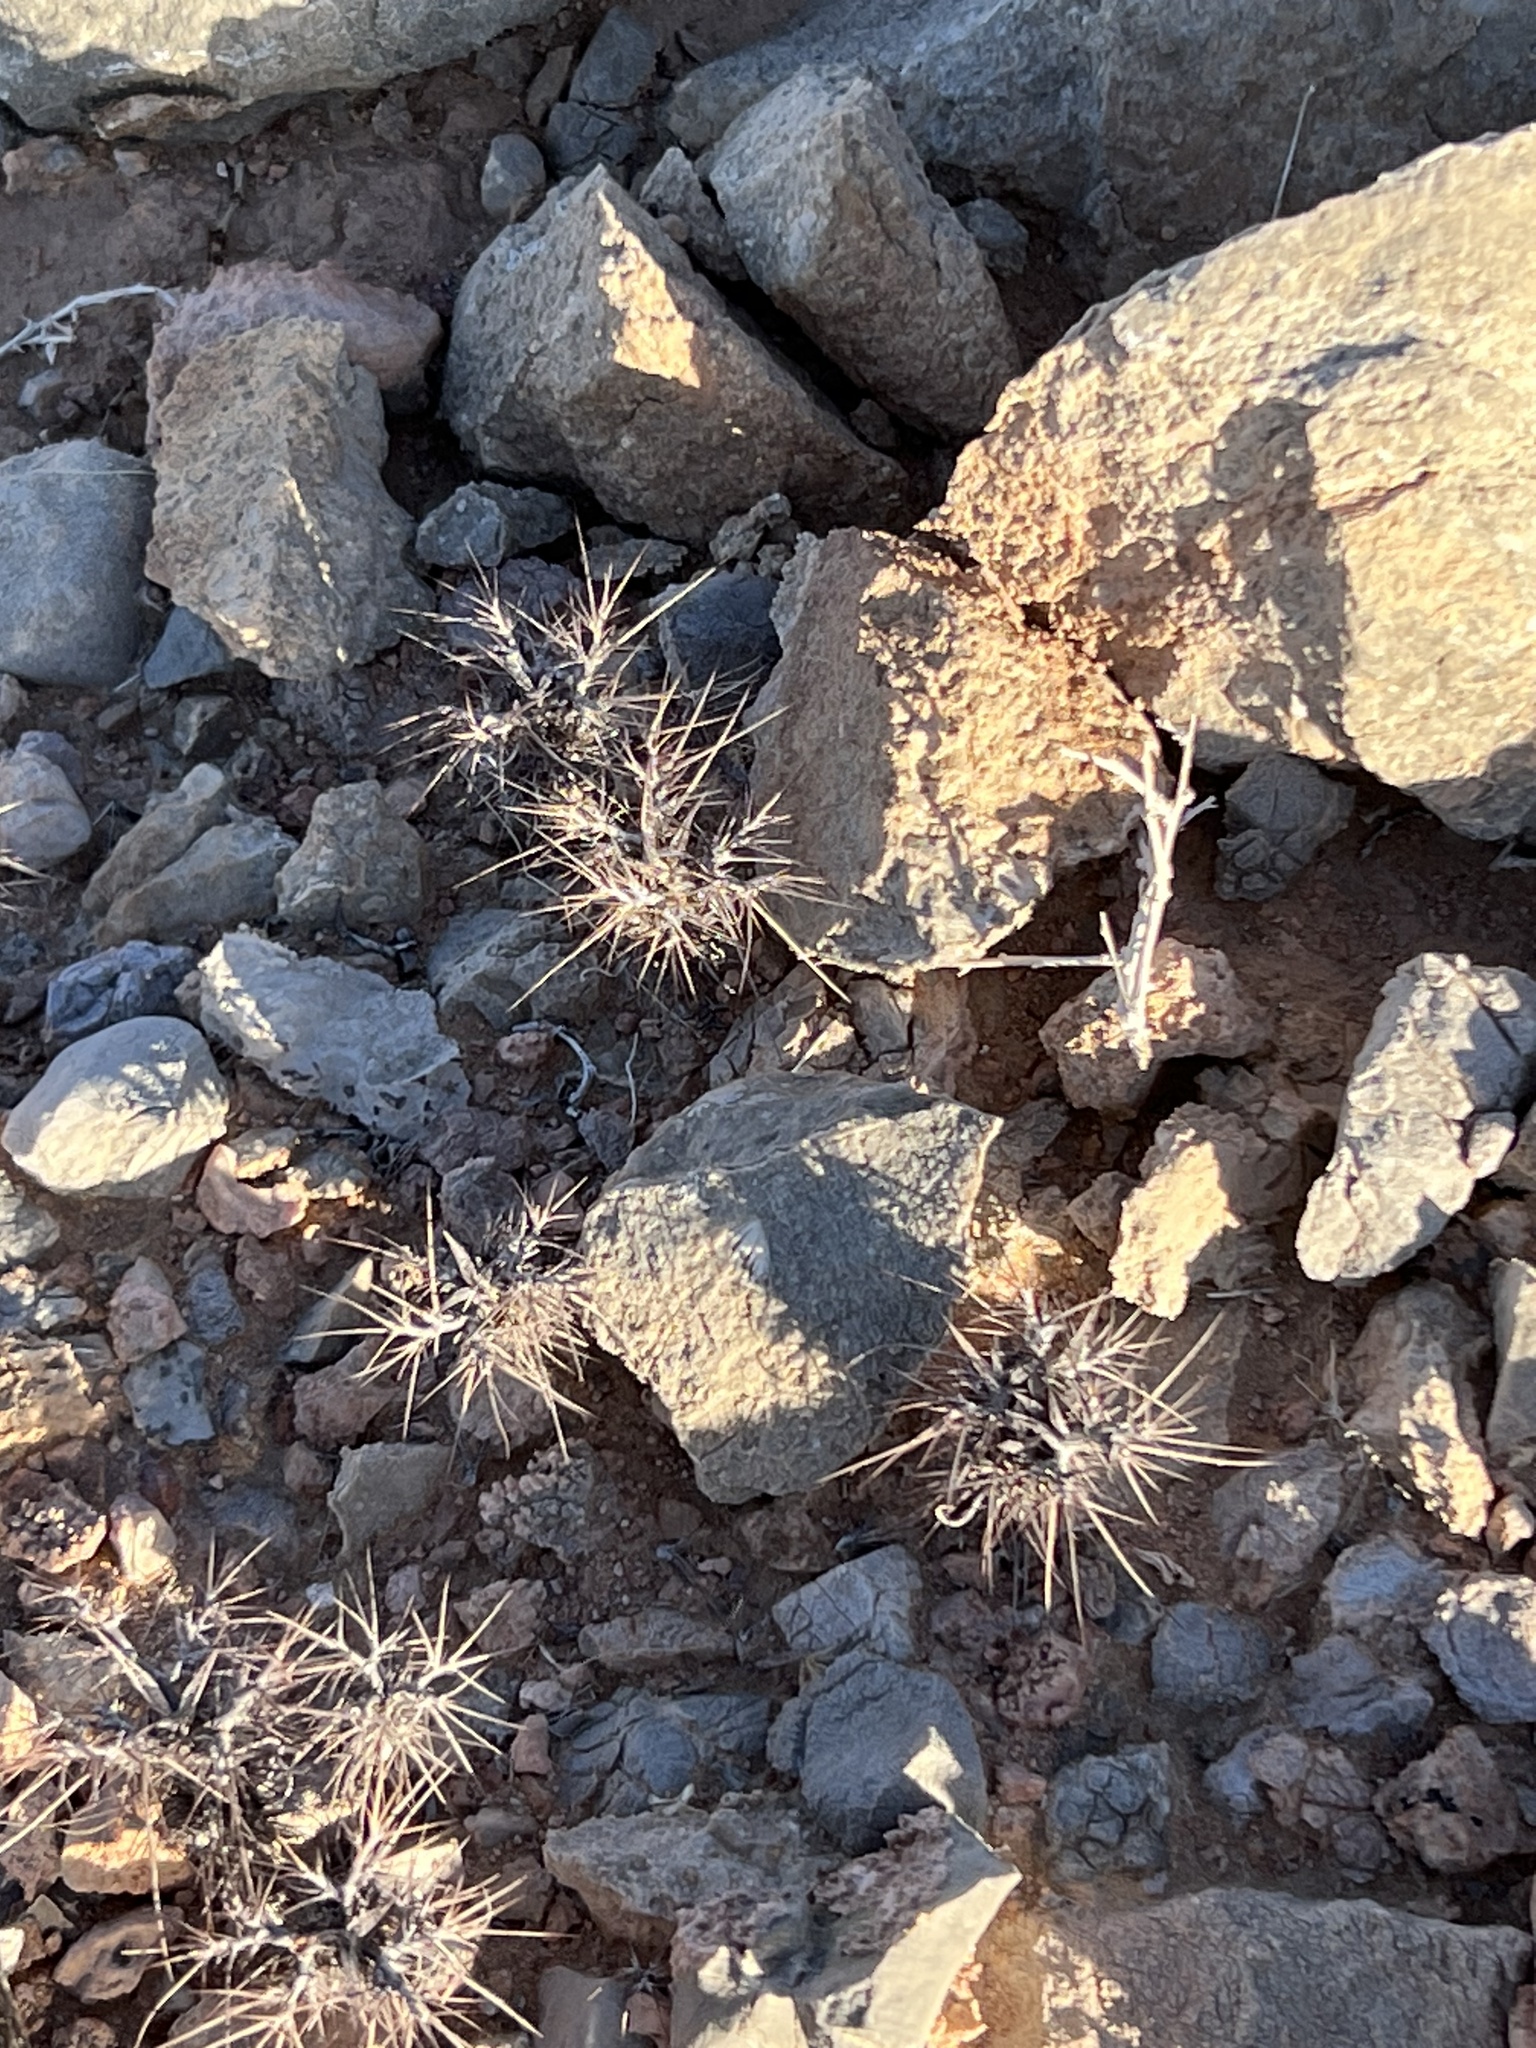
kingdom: Plantae
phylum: Tracheophyta
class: Magnoliopsida
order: Caryophyllales
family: Polygonaceae
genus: Chorizanthe
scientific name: Chorizanthe rigida
